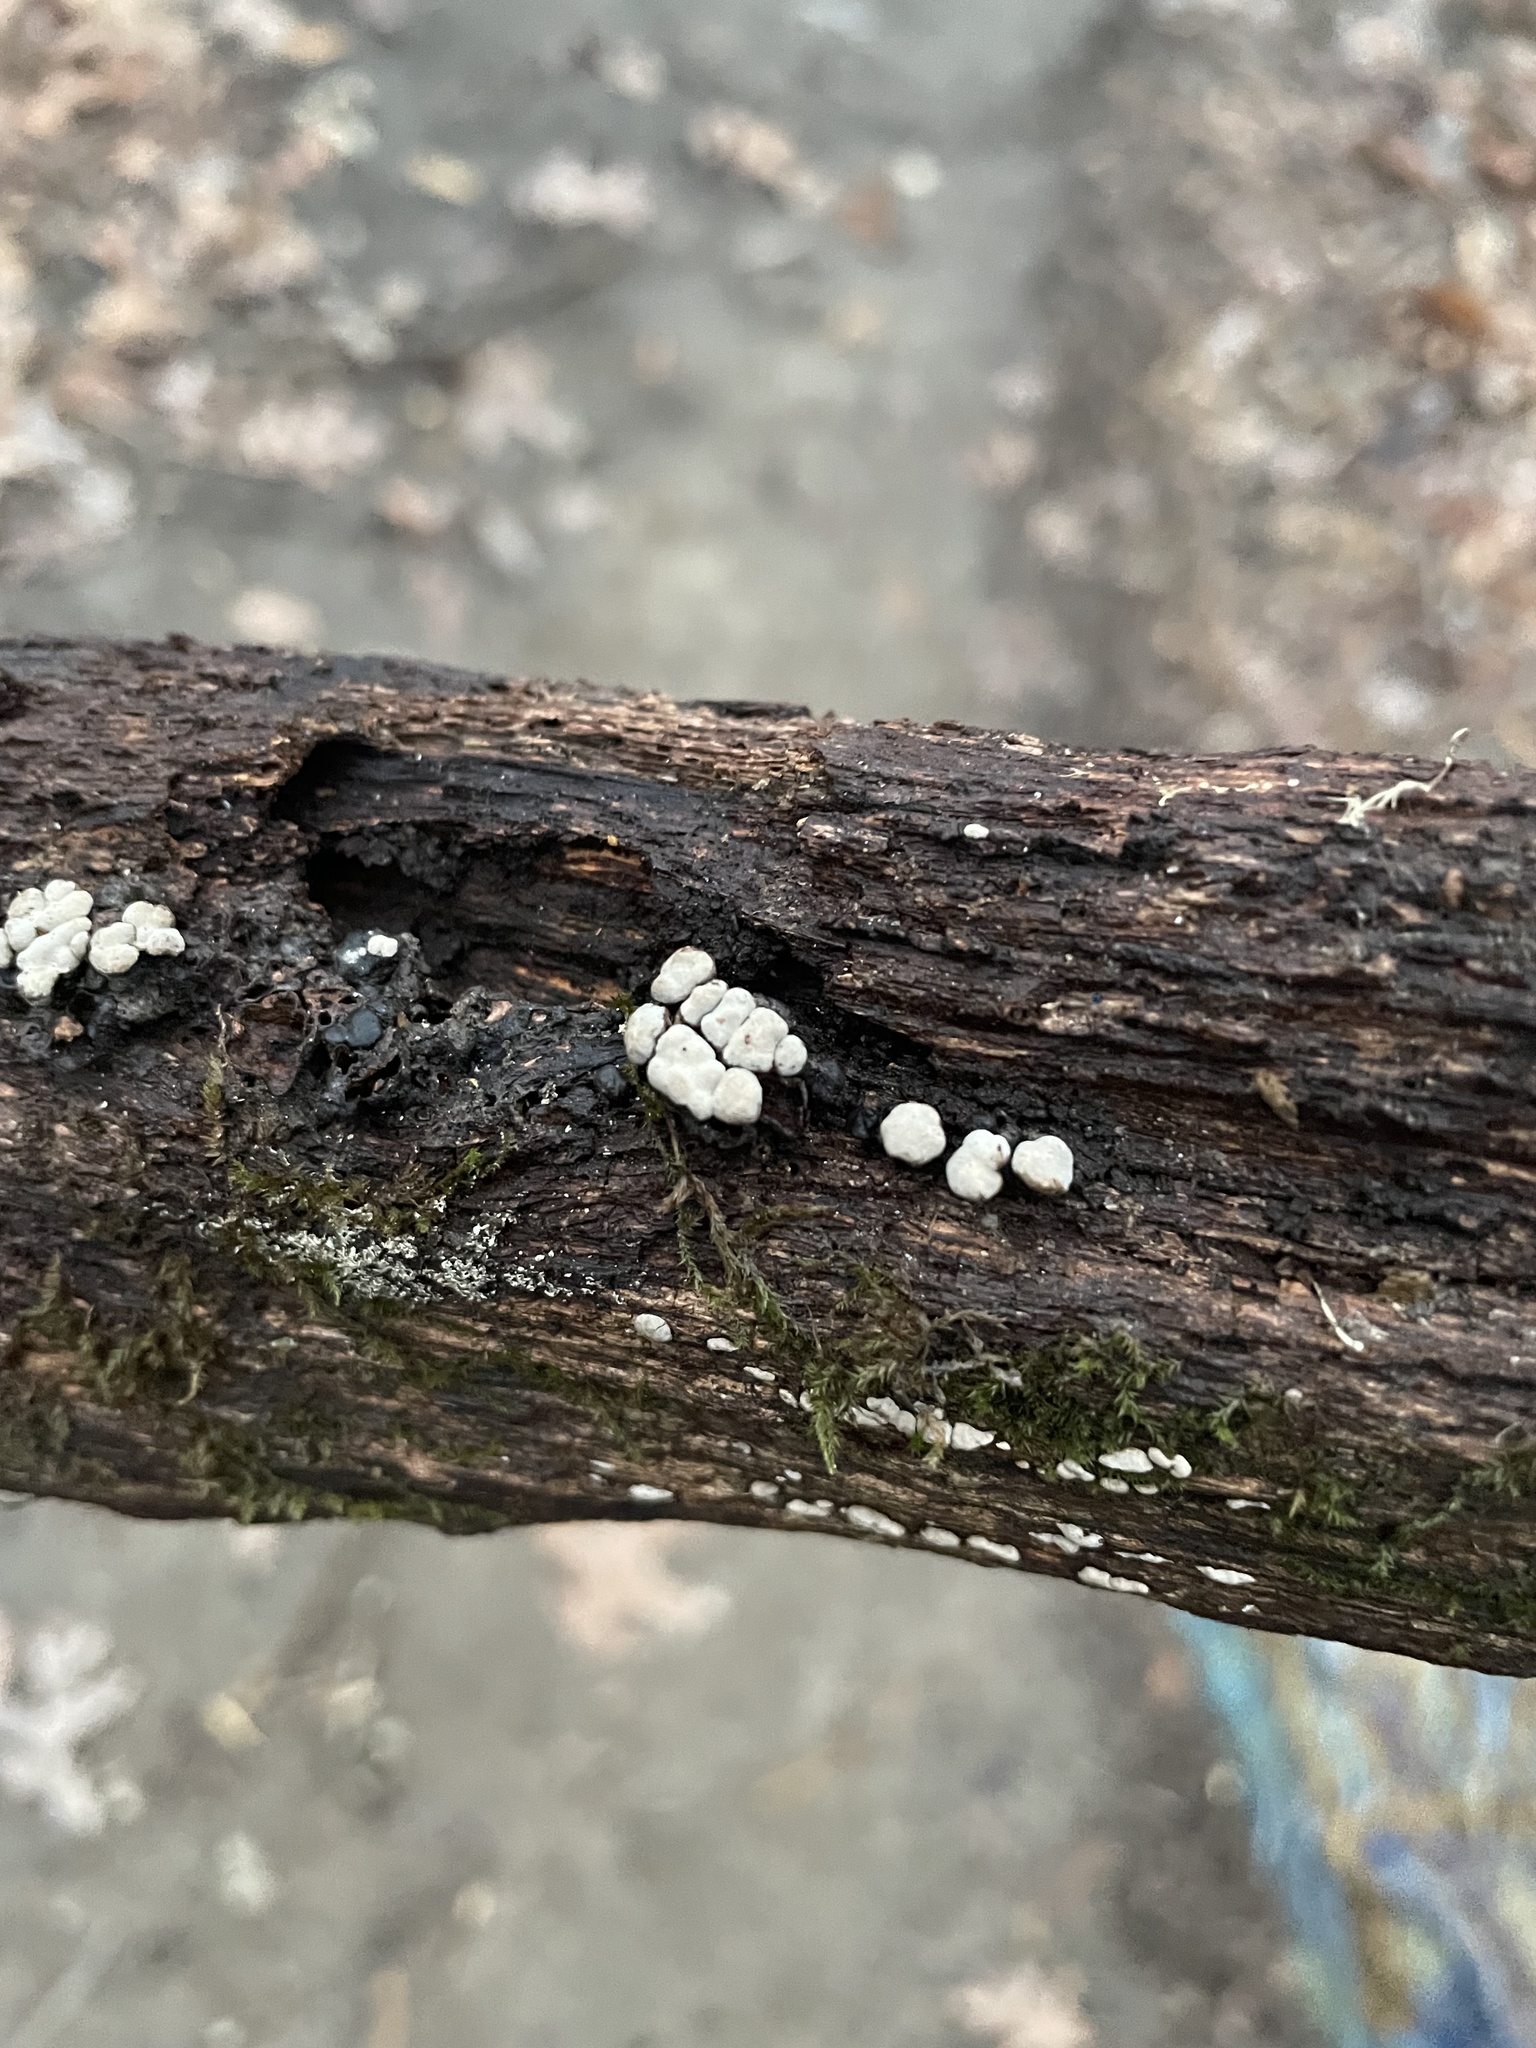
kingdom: Fungi
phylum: Basidiomycota
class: Agaricomycetes
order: Russulales
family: Stereaceae
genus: Xylobolus
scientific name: Xylobolus frustulatus
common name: Ceramic parchment
